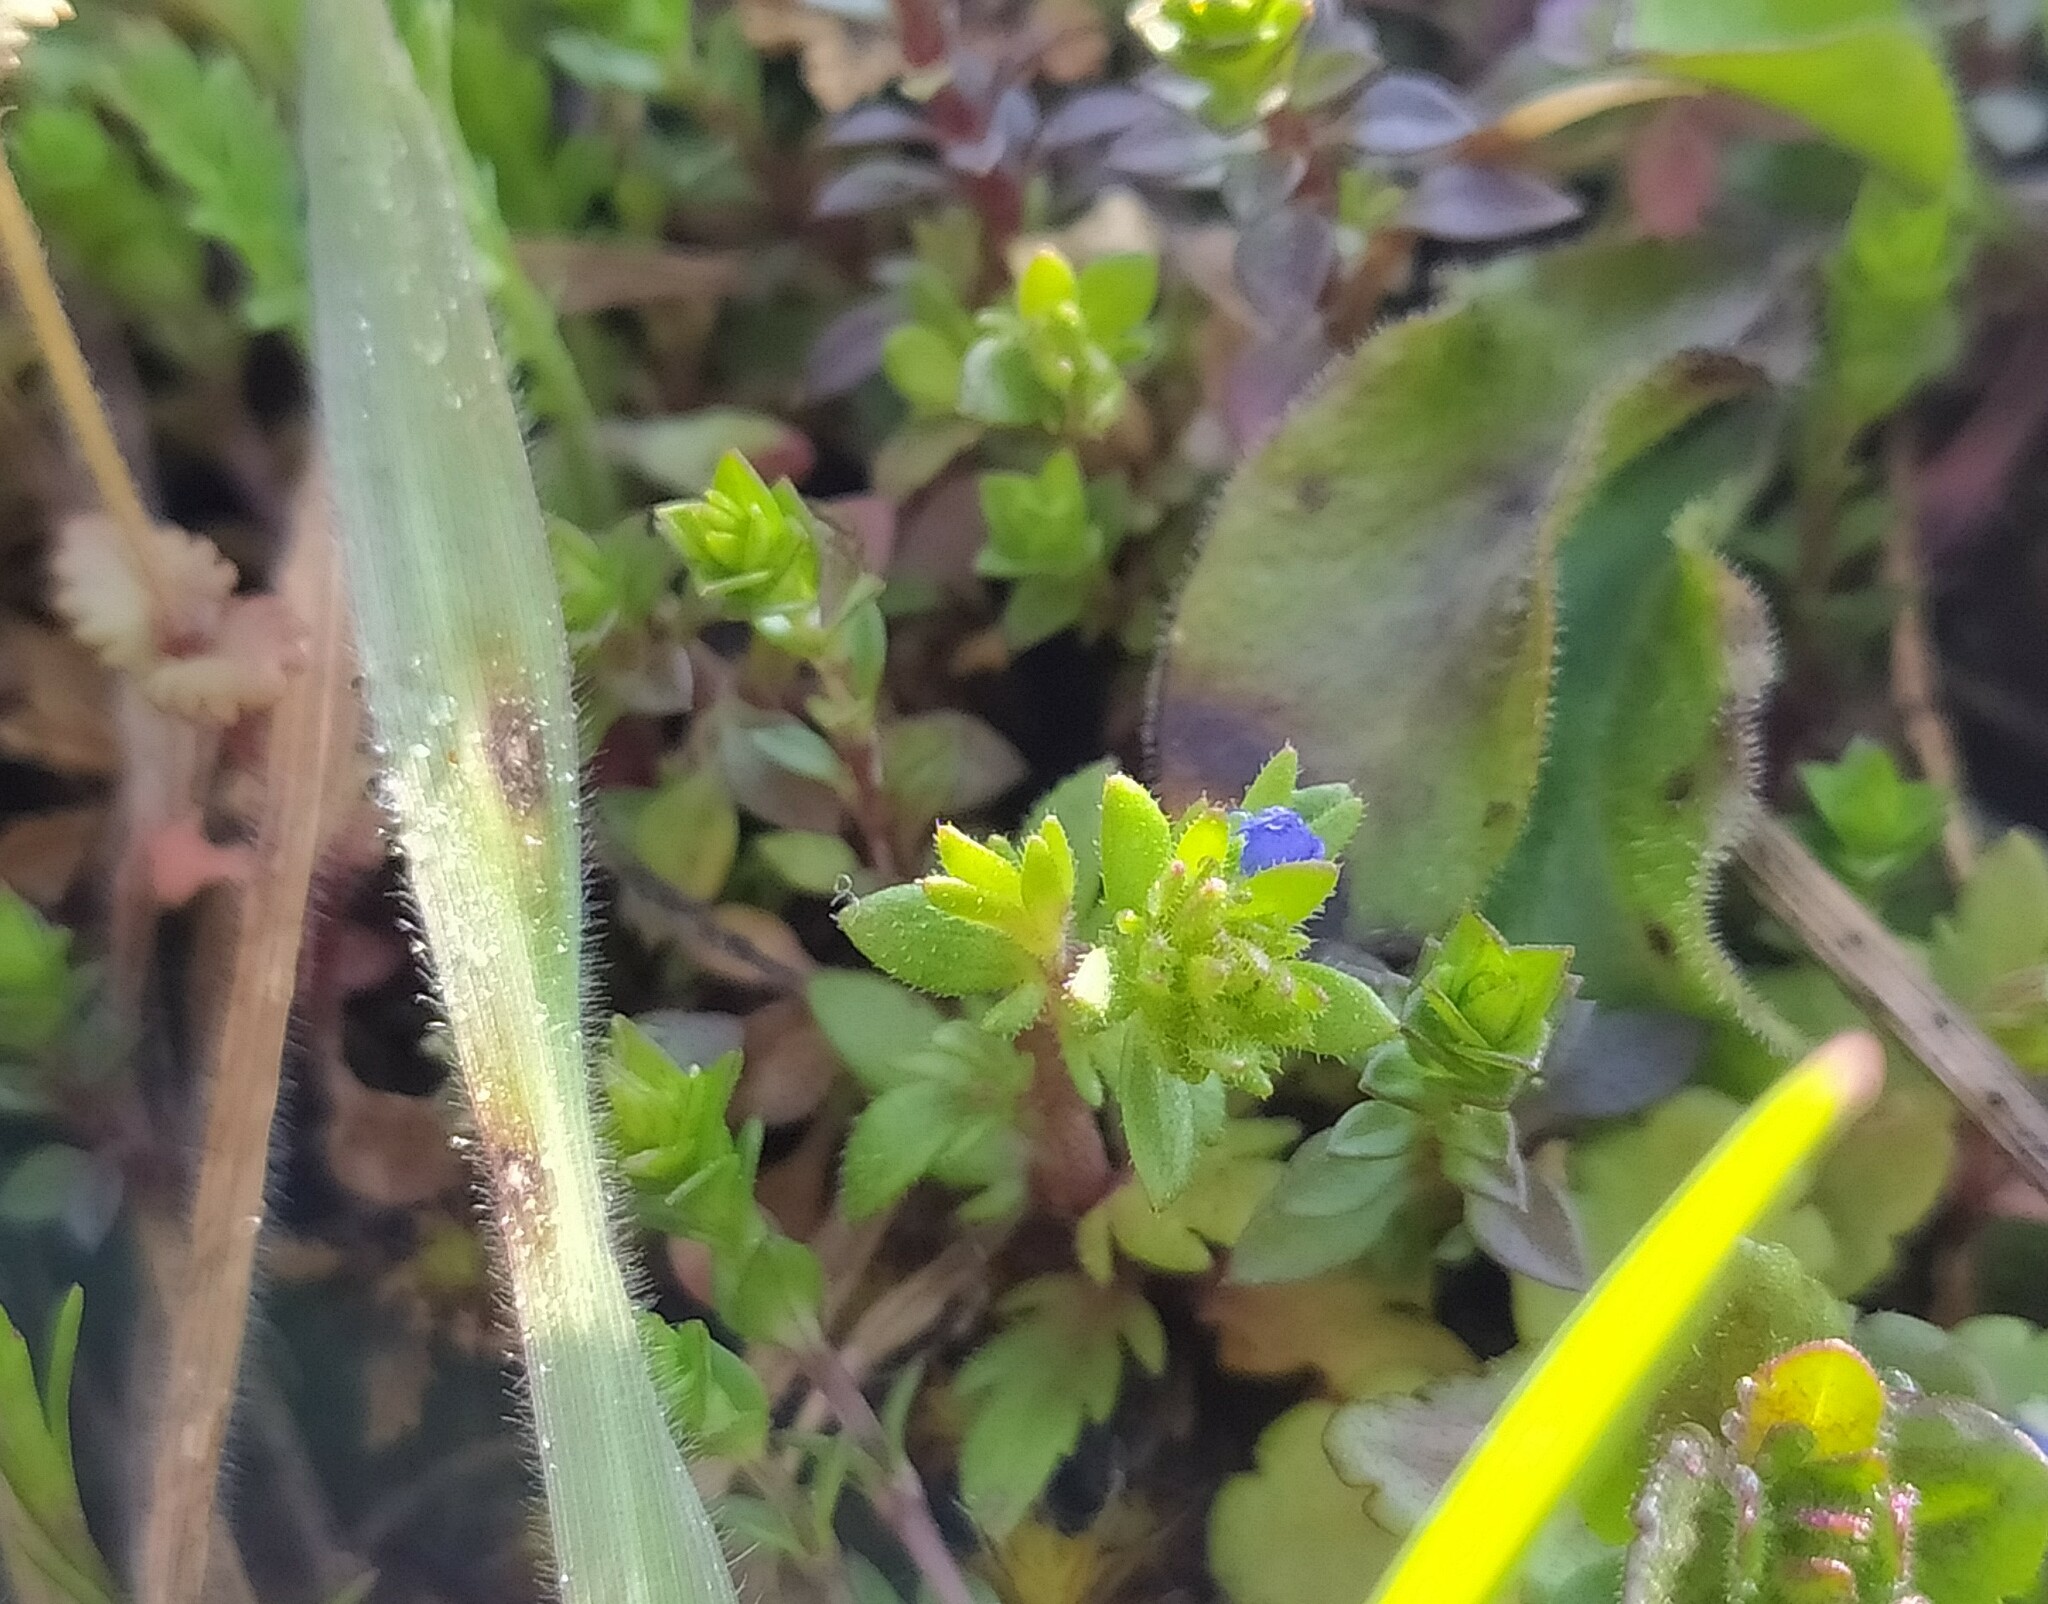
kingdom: Plantae
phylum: Tracheophyta
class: Magnoliopsida
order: Lamiales
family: Plantaginaceae
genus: Veronica
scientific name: Veronica verna
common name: Spring speedwell
